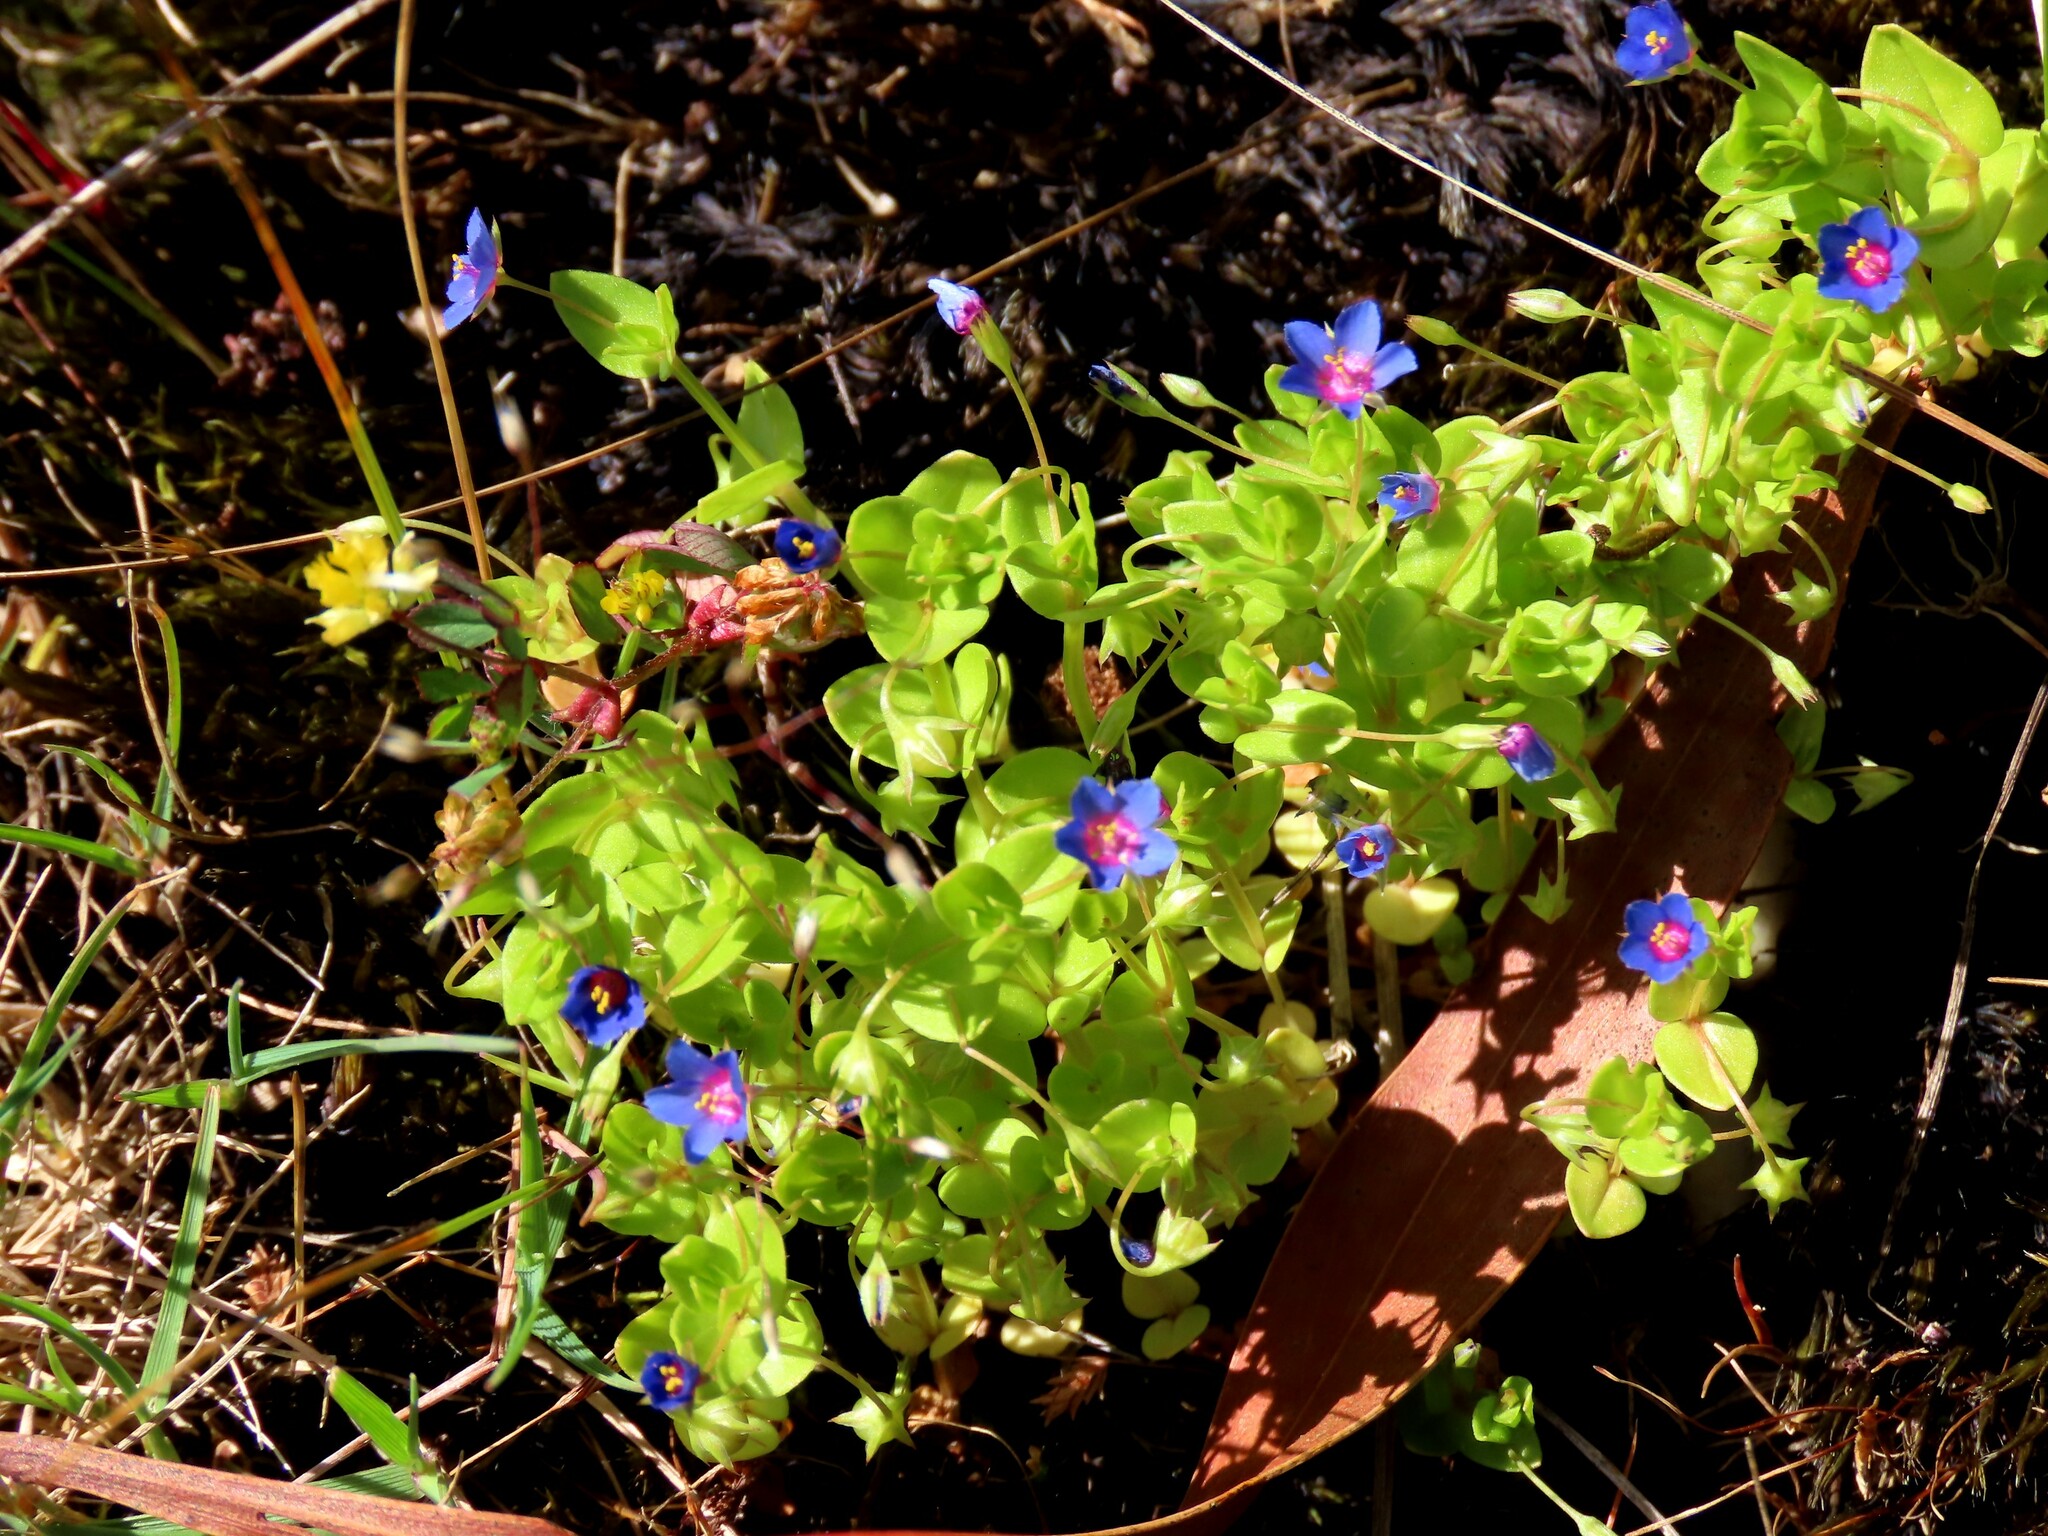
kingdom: Plantae
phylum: Tracheophyta
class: Magnoliopsida
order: Ericales
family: Primulaceae
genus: Lysimachia
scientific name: Lysimachia loeflingii
